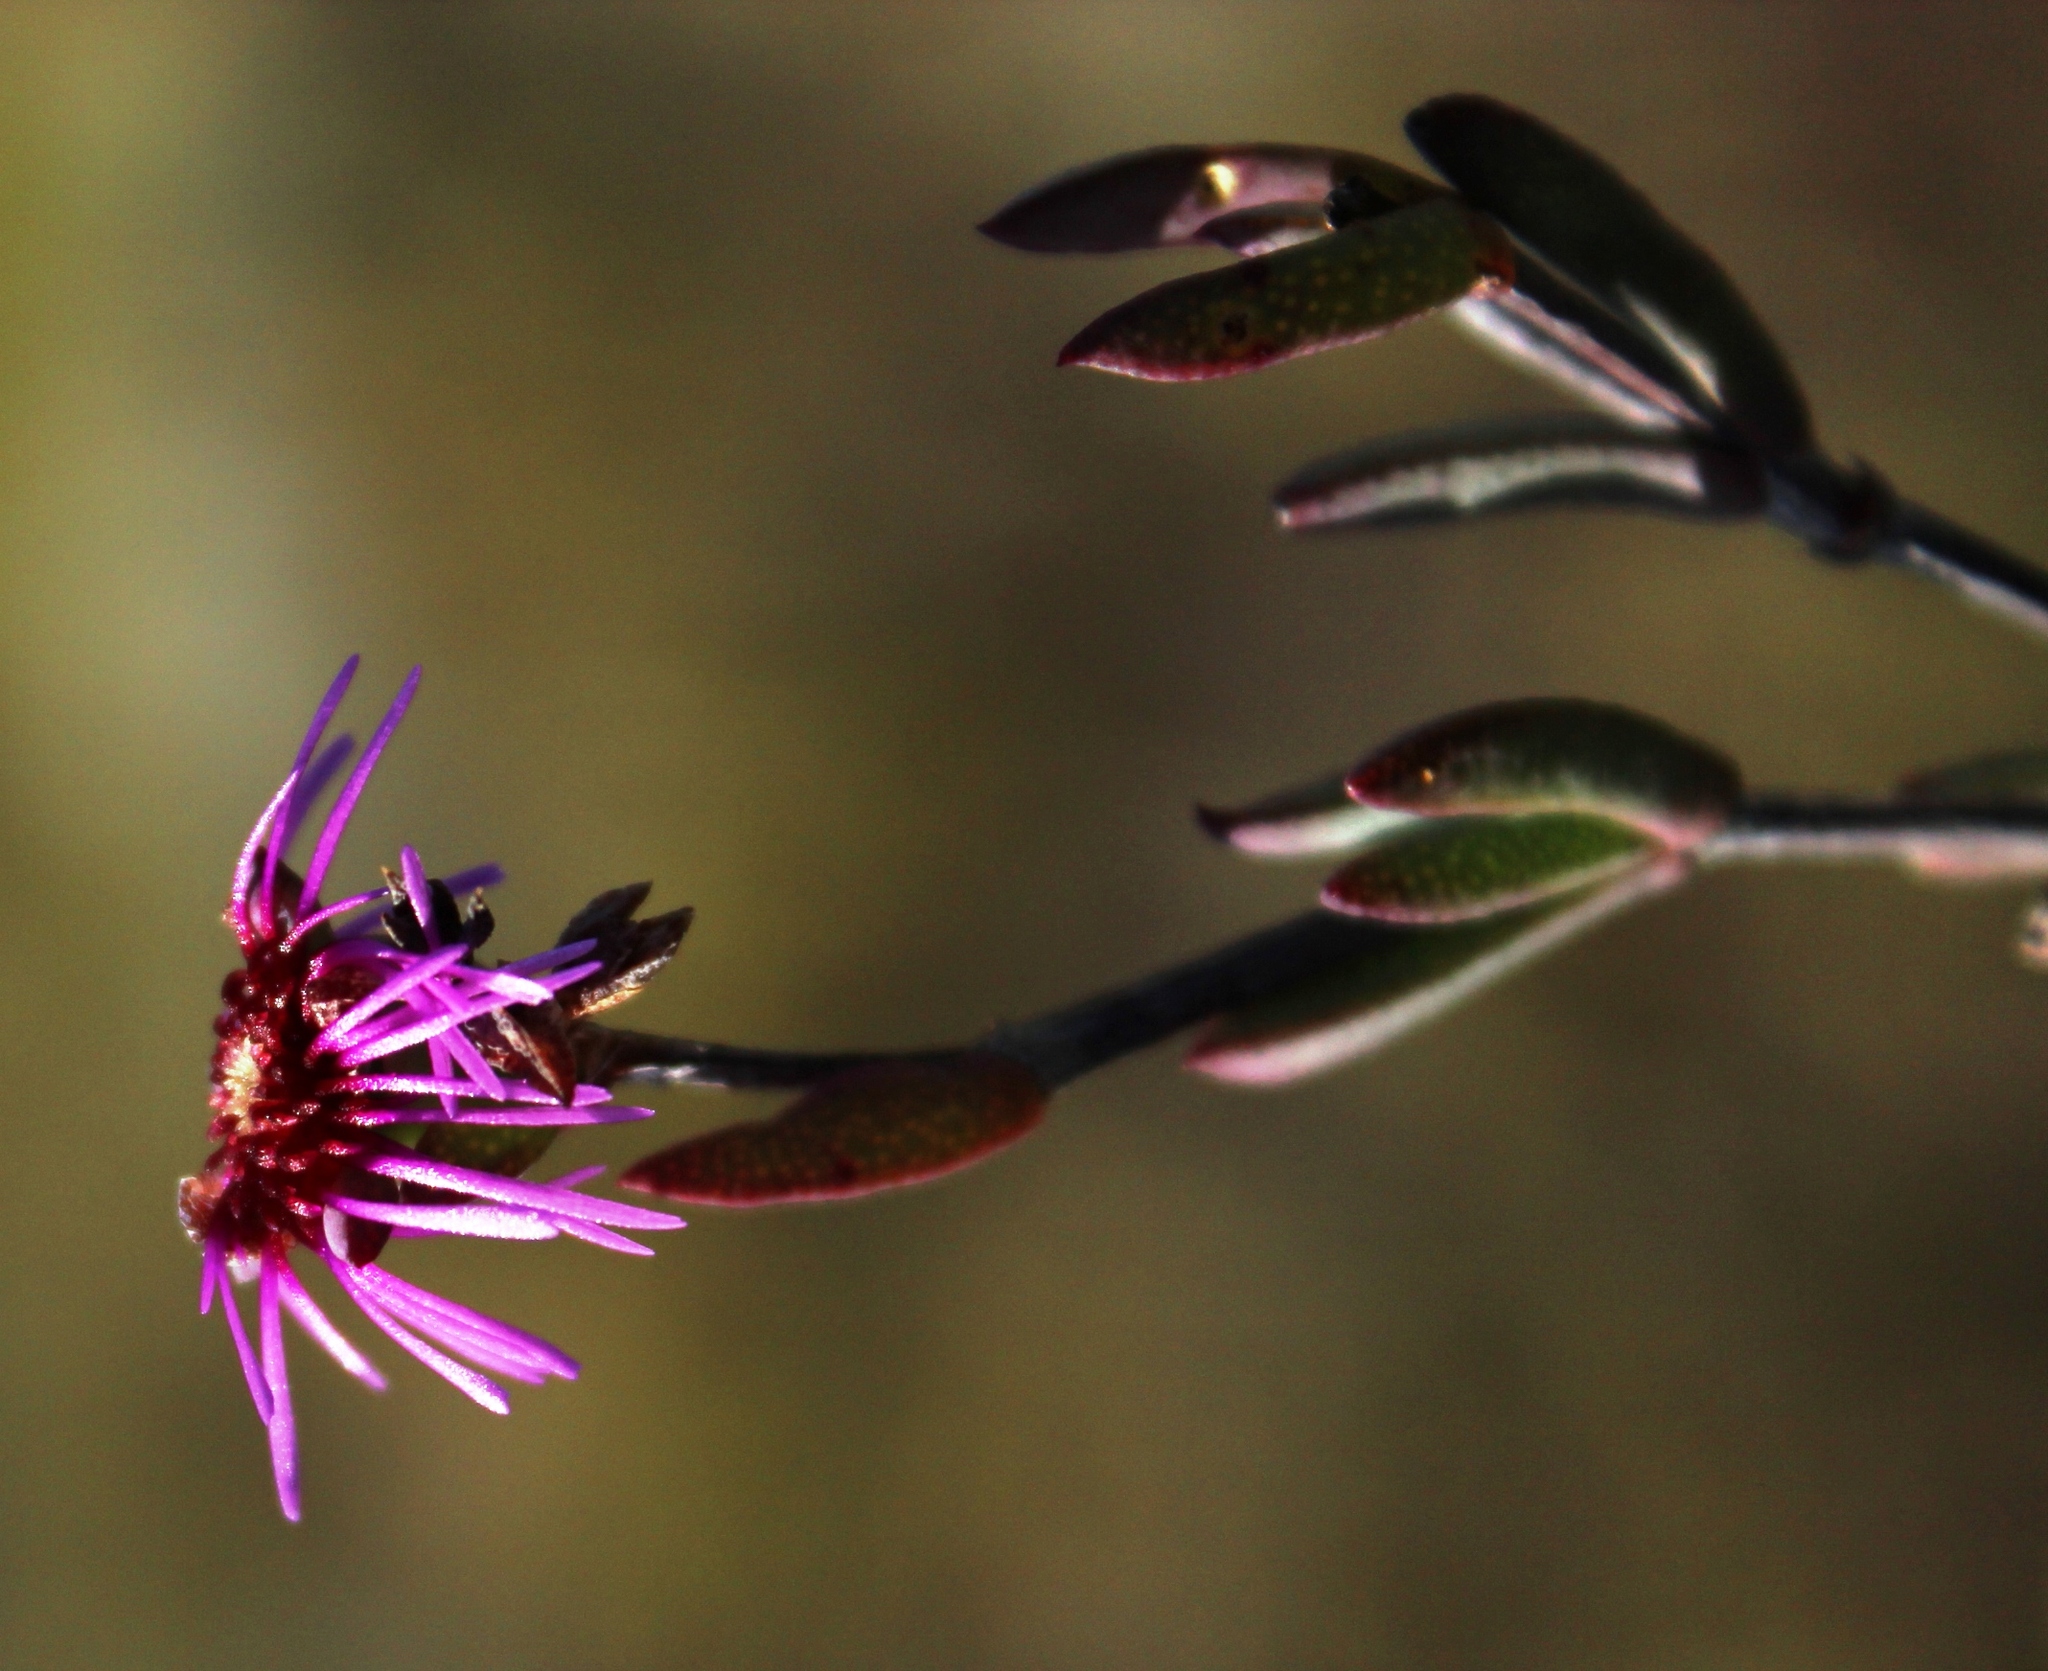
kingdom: Plantae
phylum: Tracheophyta
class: Magnoliopsida
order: Caryophyllales
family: Aizoaceae
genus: Erepsia
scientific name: Erepsia saturata
